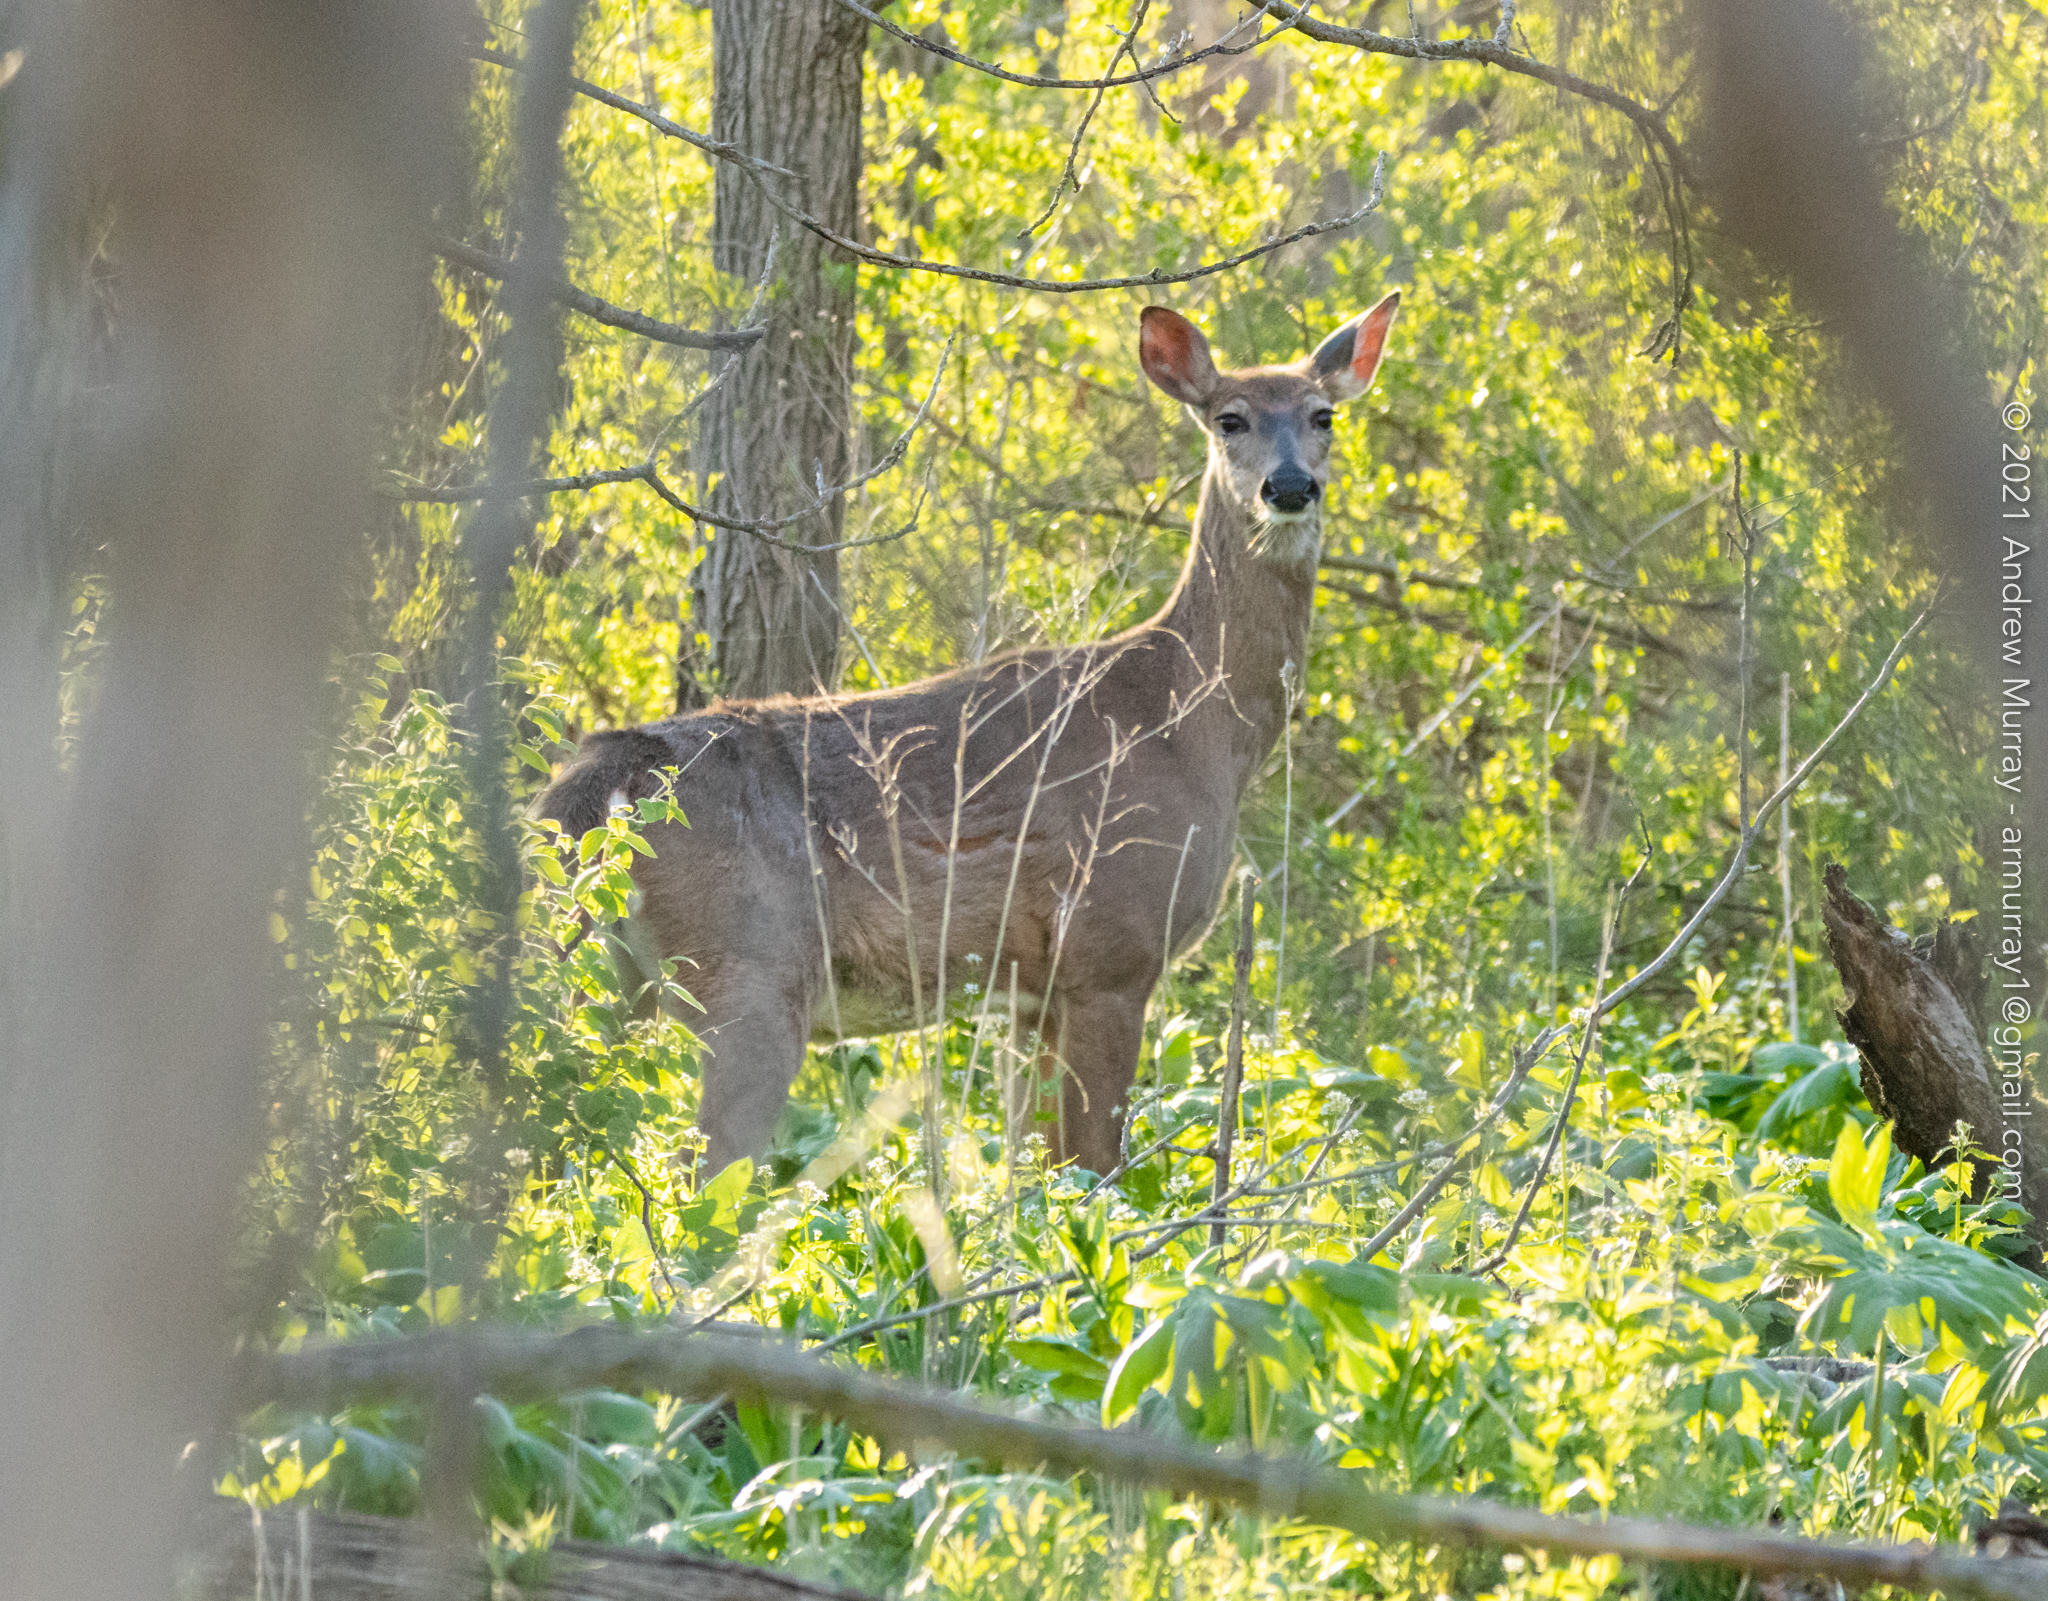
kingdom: Animalia
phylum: Chordata
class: Mammalia
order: Artiodactyla
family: Cervidae
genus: Odocoileus
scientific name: Odocoileus virginianus
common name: White-tailed deer
